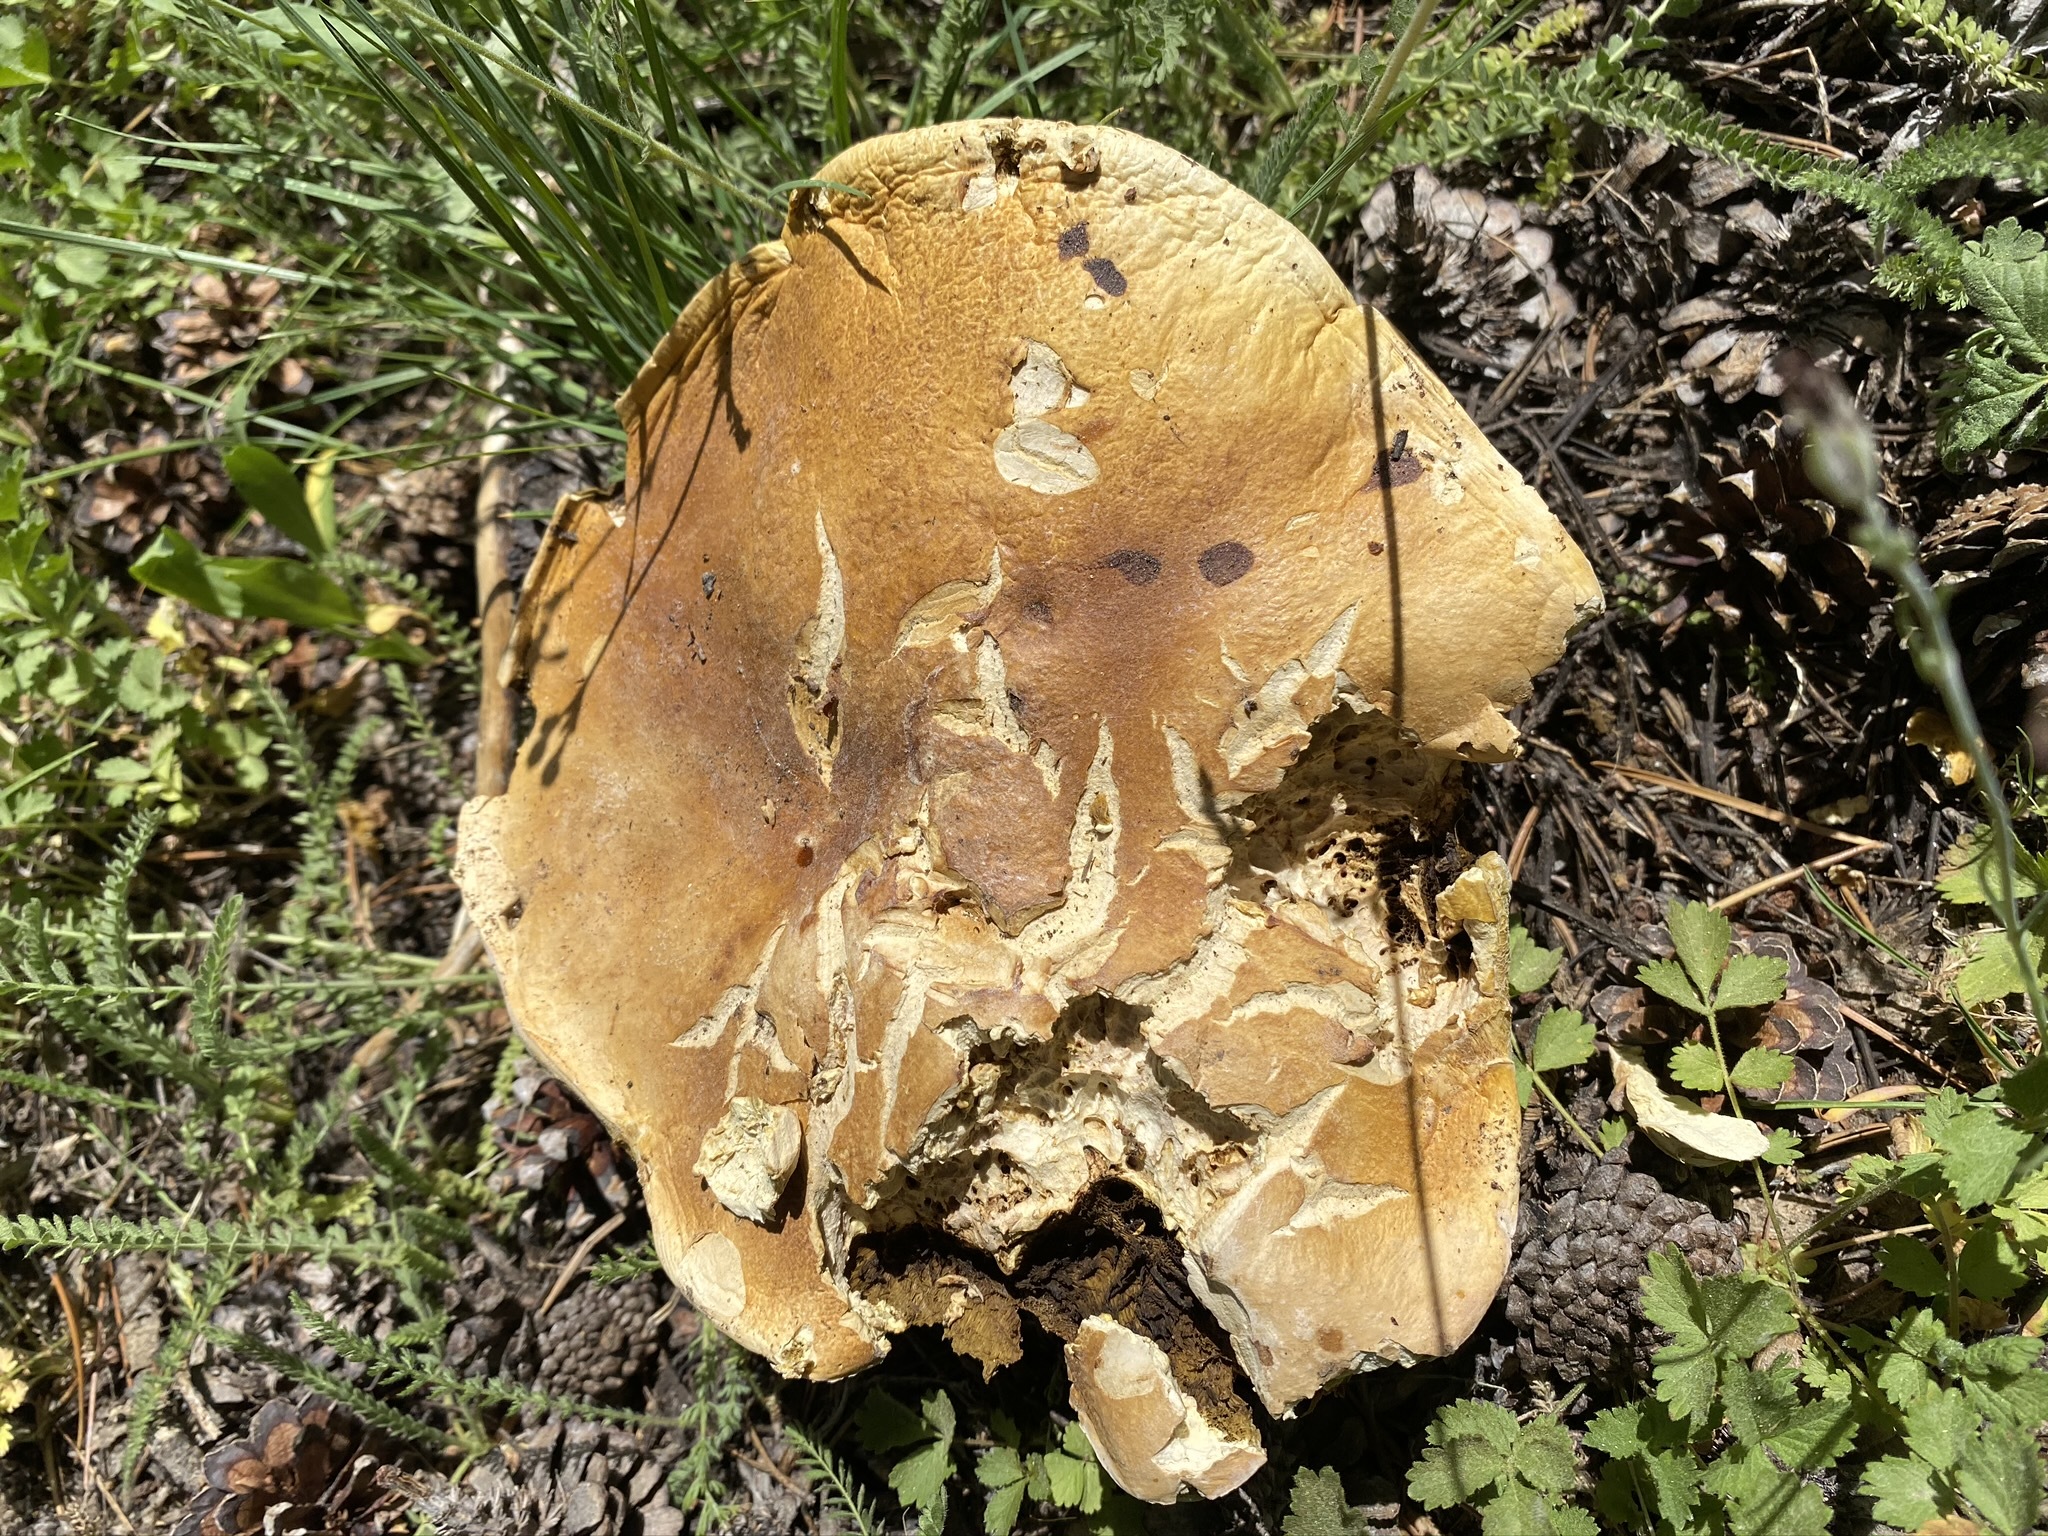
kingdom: Fungi
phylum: Basidiomycota
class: Agaricomycetes
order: Boletales
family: Boletaceae
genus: Boletus
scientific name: Boletus edulis
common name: Cep
